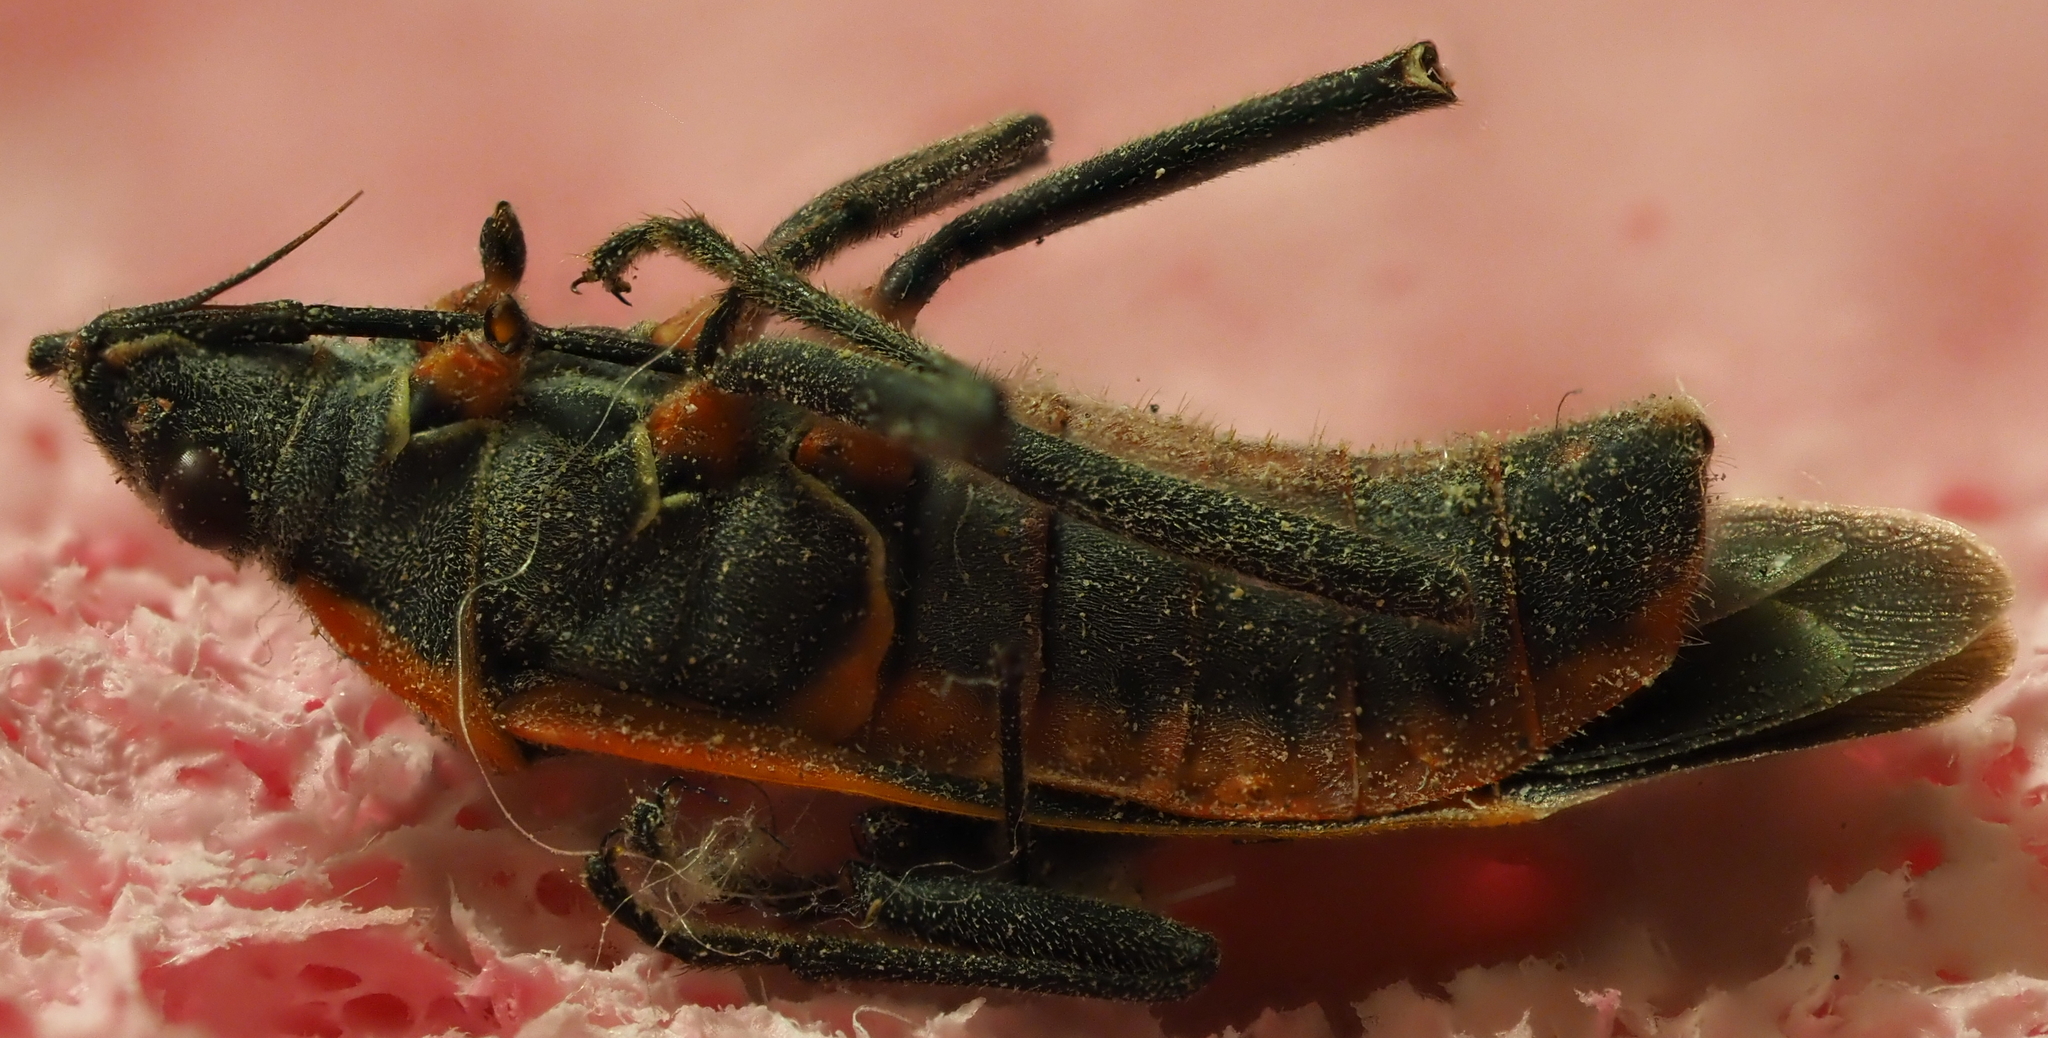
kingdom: Animalia
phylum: Arthropoda
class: Insecta
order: Hemiptera
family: Rhopalidae
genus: Boisea
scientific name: Boisea trivittata
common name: Boxelder bug
